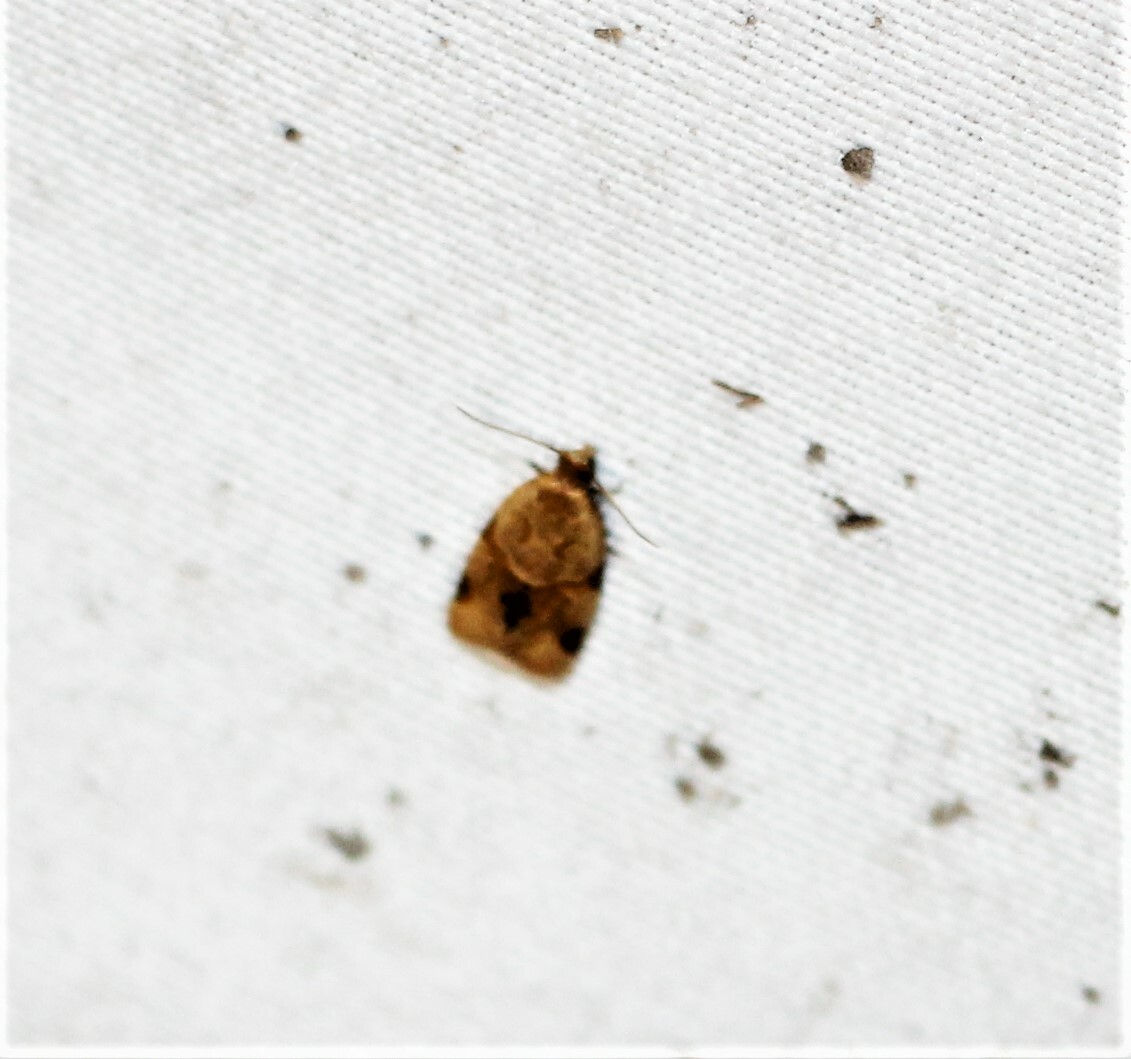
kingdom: Animalia
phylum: Arthropoda
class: Insecta
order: Lepidoptera
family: Tortricidae
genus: Clepsis
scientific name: Clepsis peritana
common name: Garden tortrix
